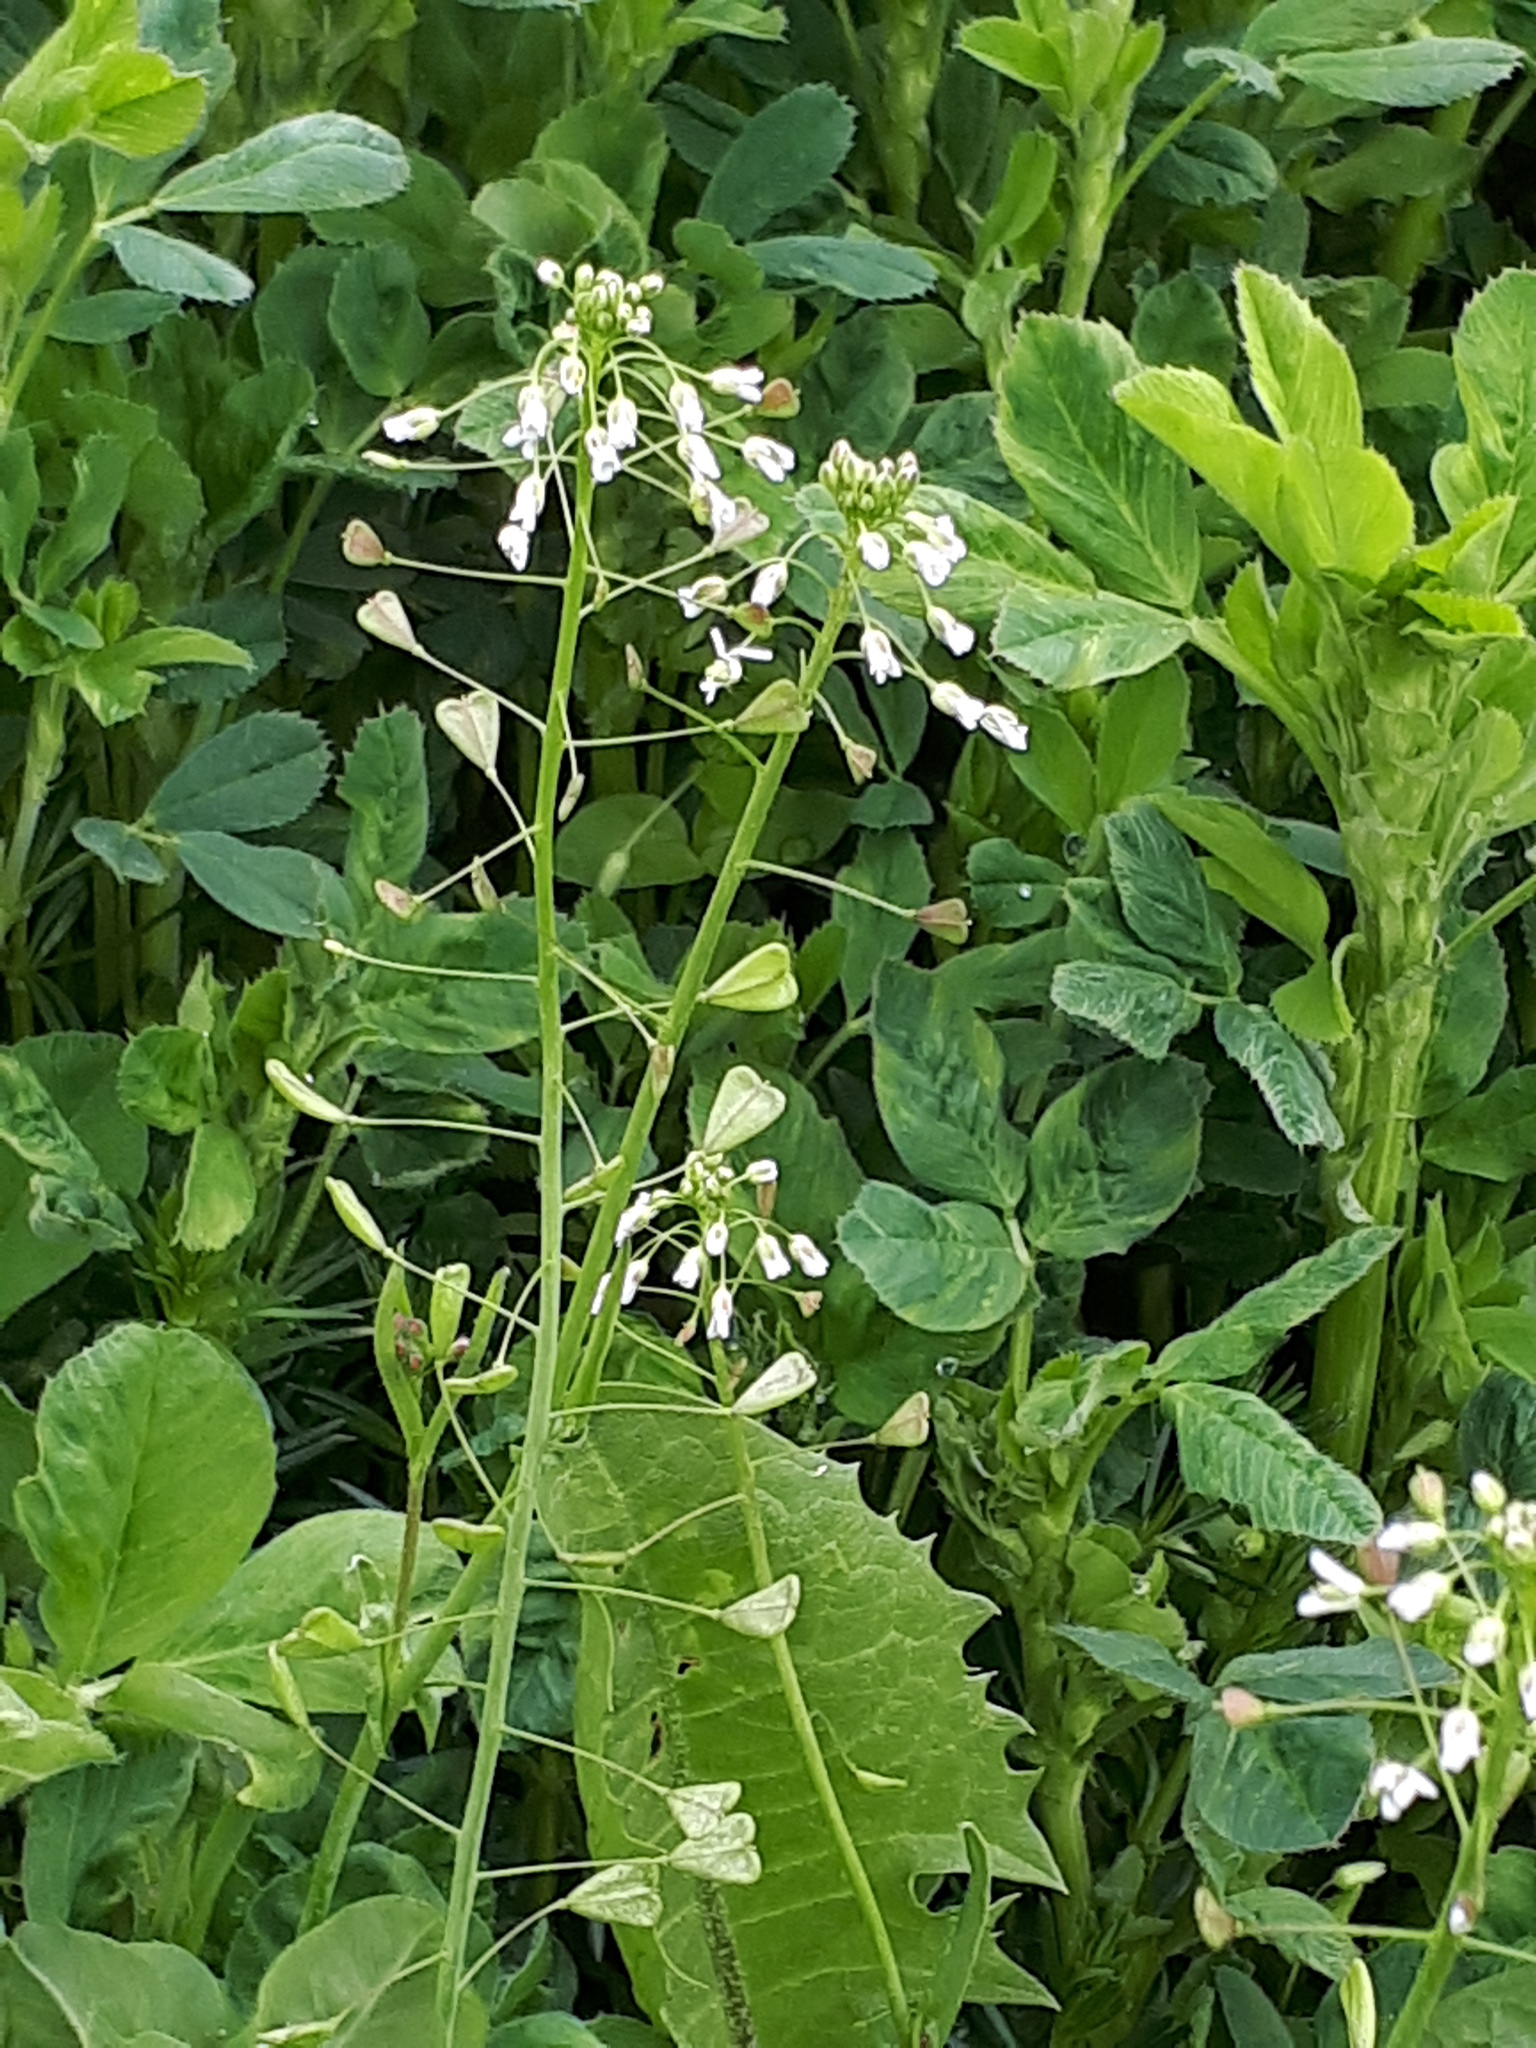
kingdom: Plantae
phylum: Tracheophyta
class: Magnoliopsida
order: Brassicales
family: Brassicaceae
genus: Capsella
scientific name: Capsella bursa-pastoris
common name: Shepherd's purse
